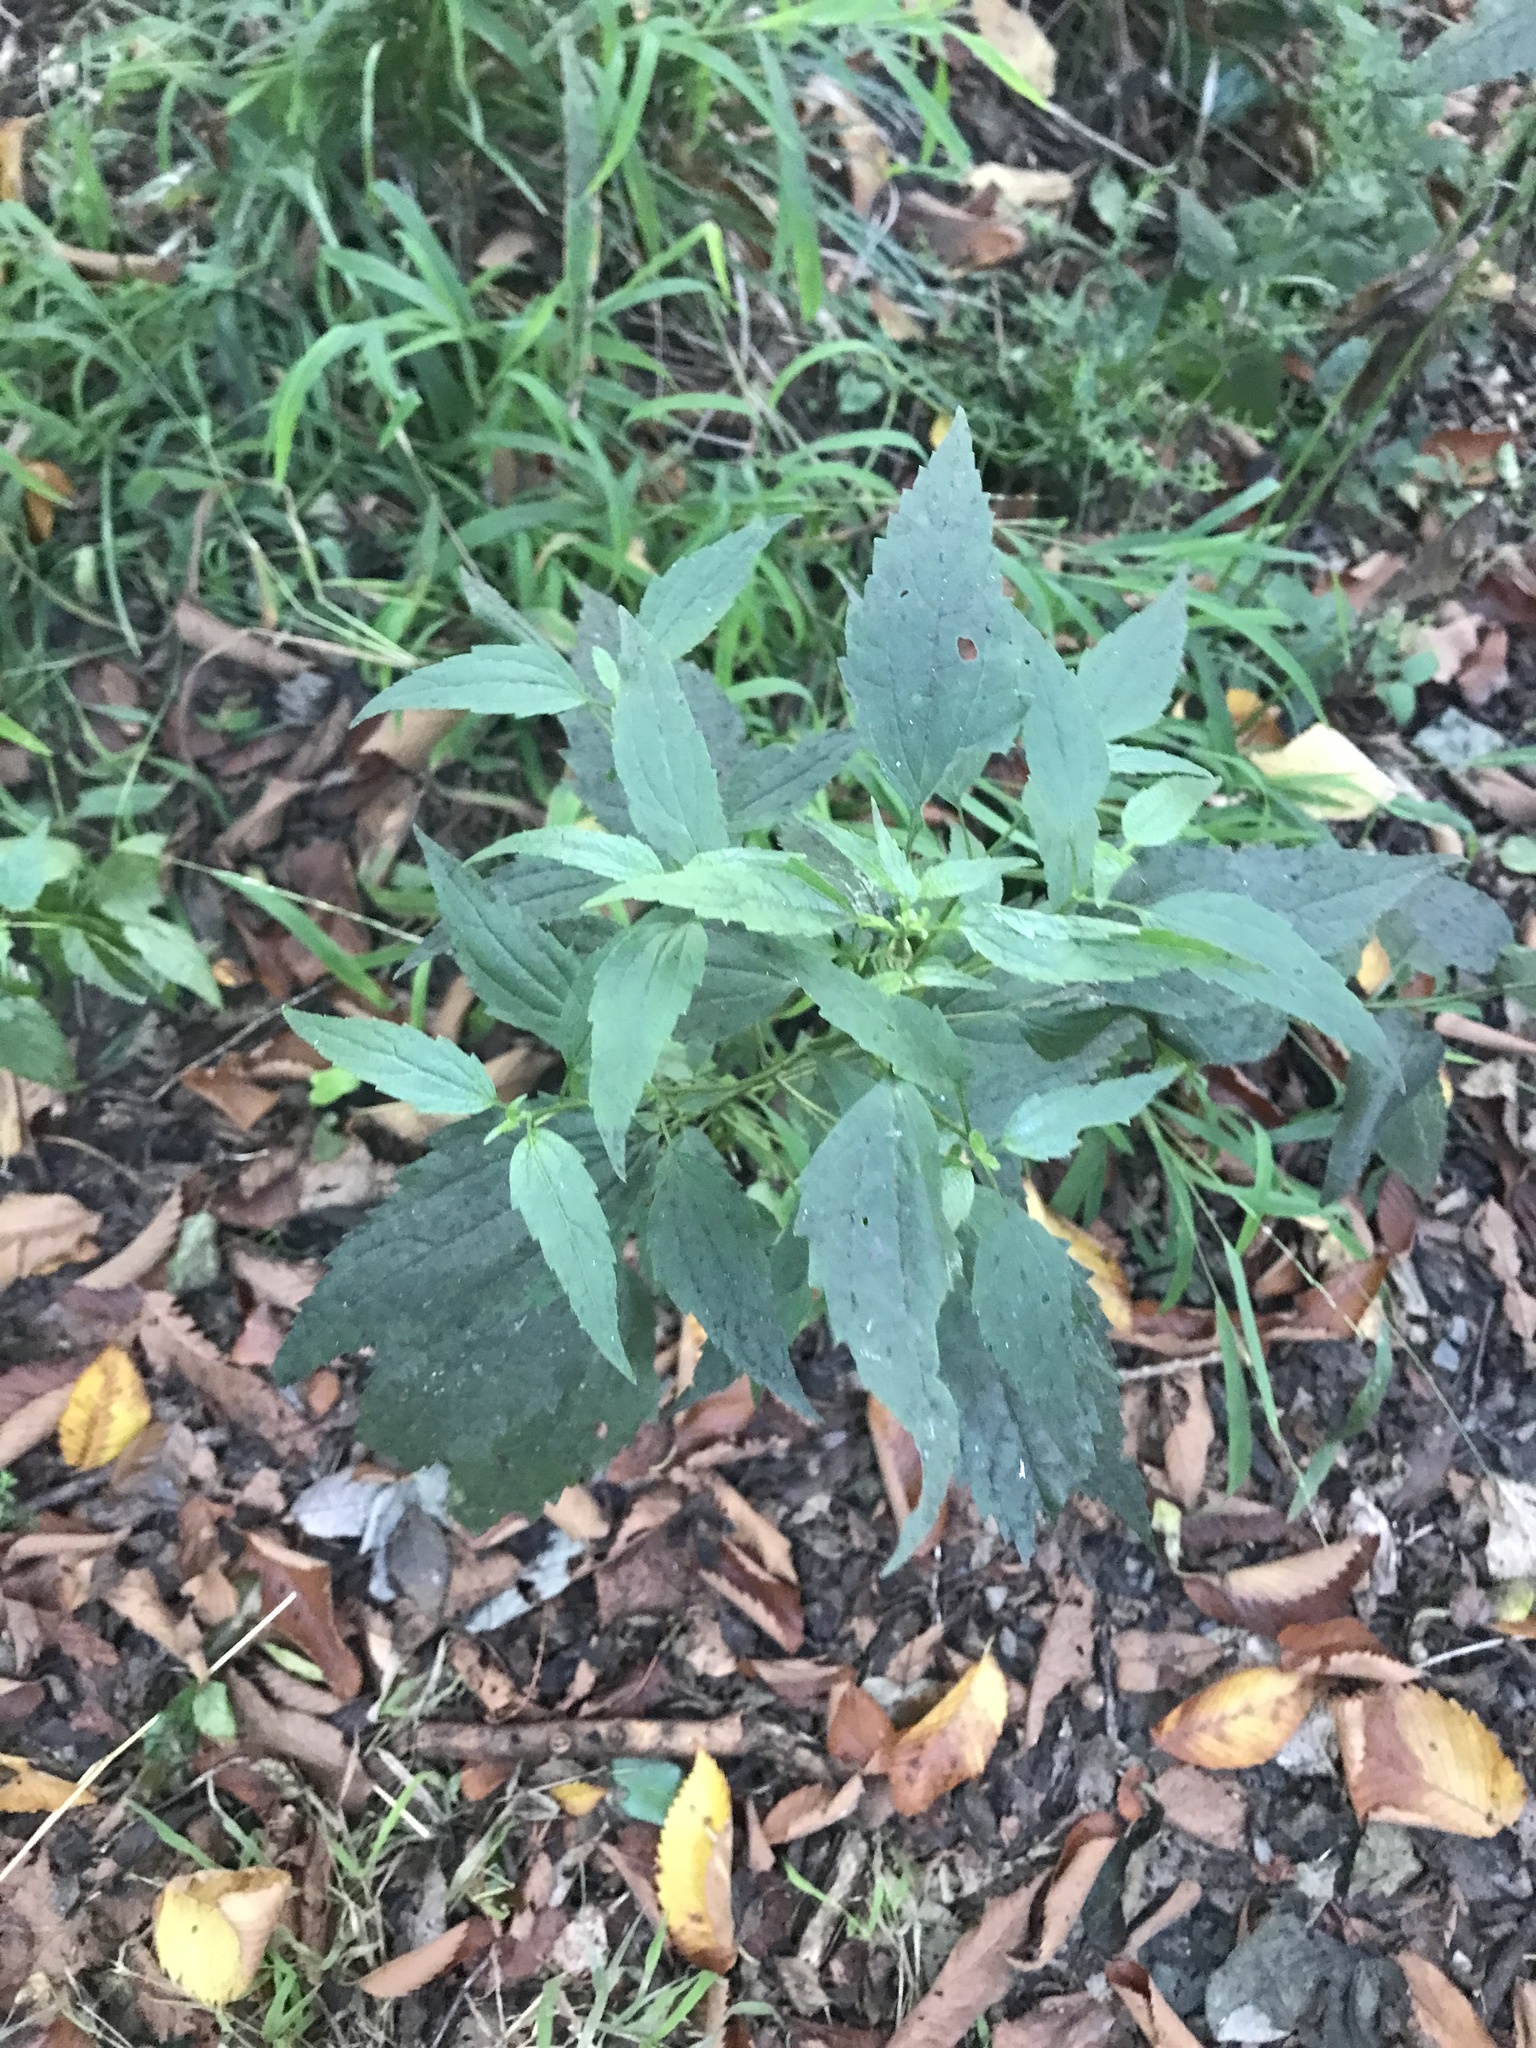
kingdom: Plantae
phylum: Tracheophyta
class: Magnoliopsida
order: Asterales
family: Asteraceae
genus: Ageratina
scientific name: Ageratina altissima
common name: White snakeroot
